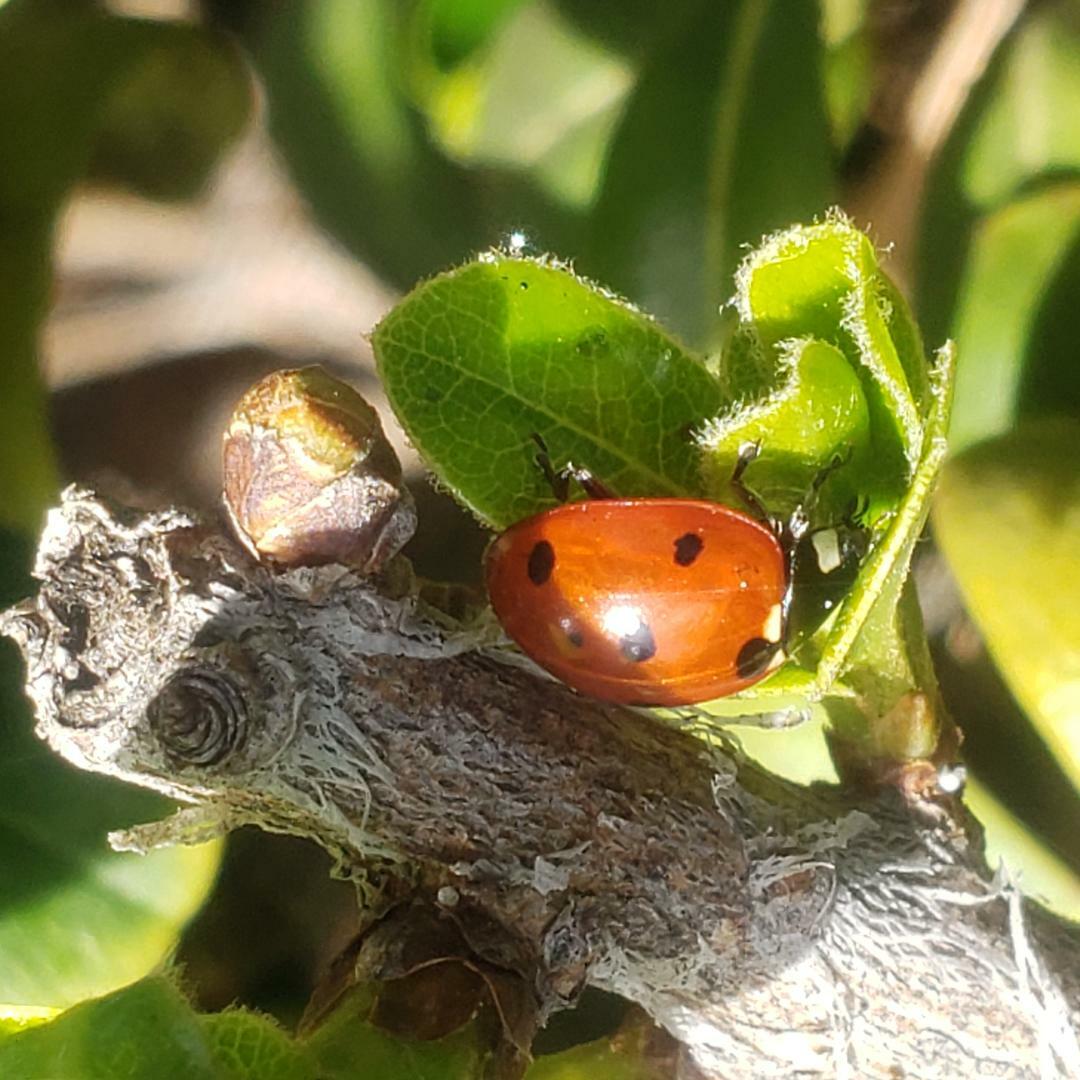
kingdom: Animalia
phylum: Arthropoda
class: Insecta
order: Coleoptera
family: Coccinellidae
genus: Coccinella
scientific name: Coccinella septempunctata
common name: Sevenspotted lady beetle
